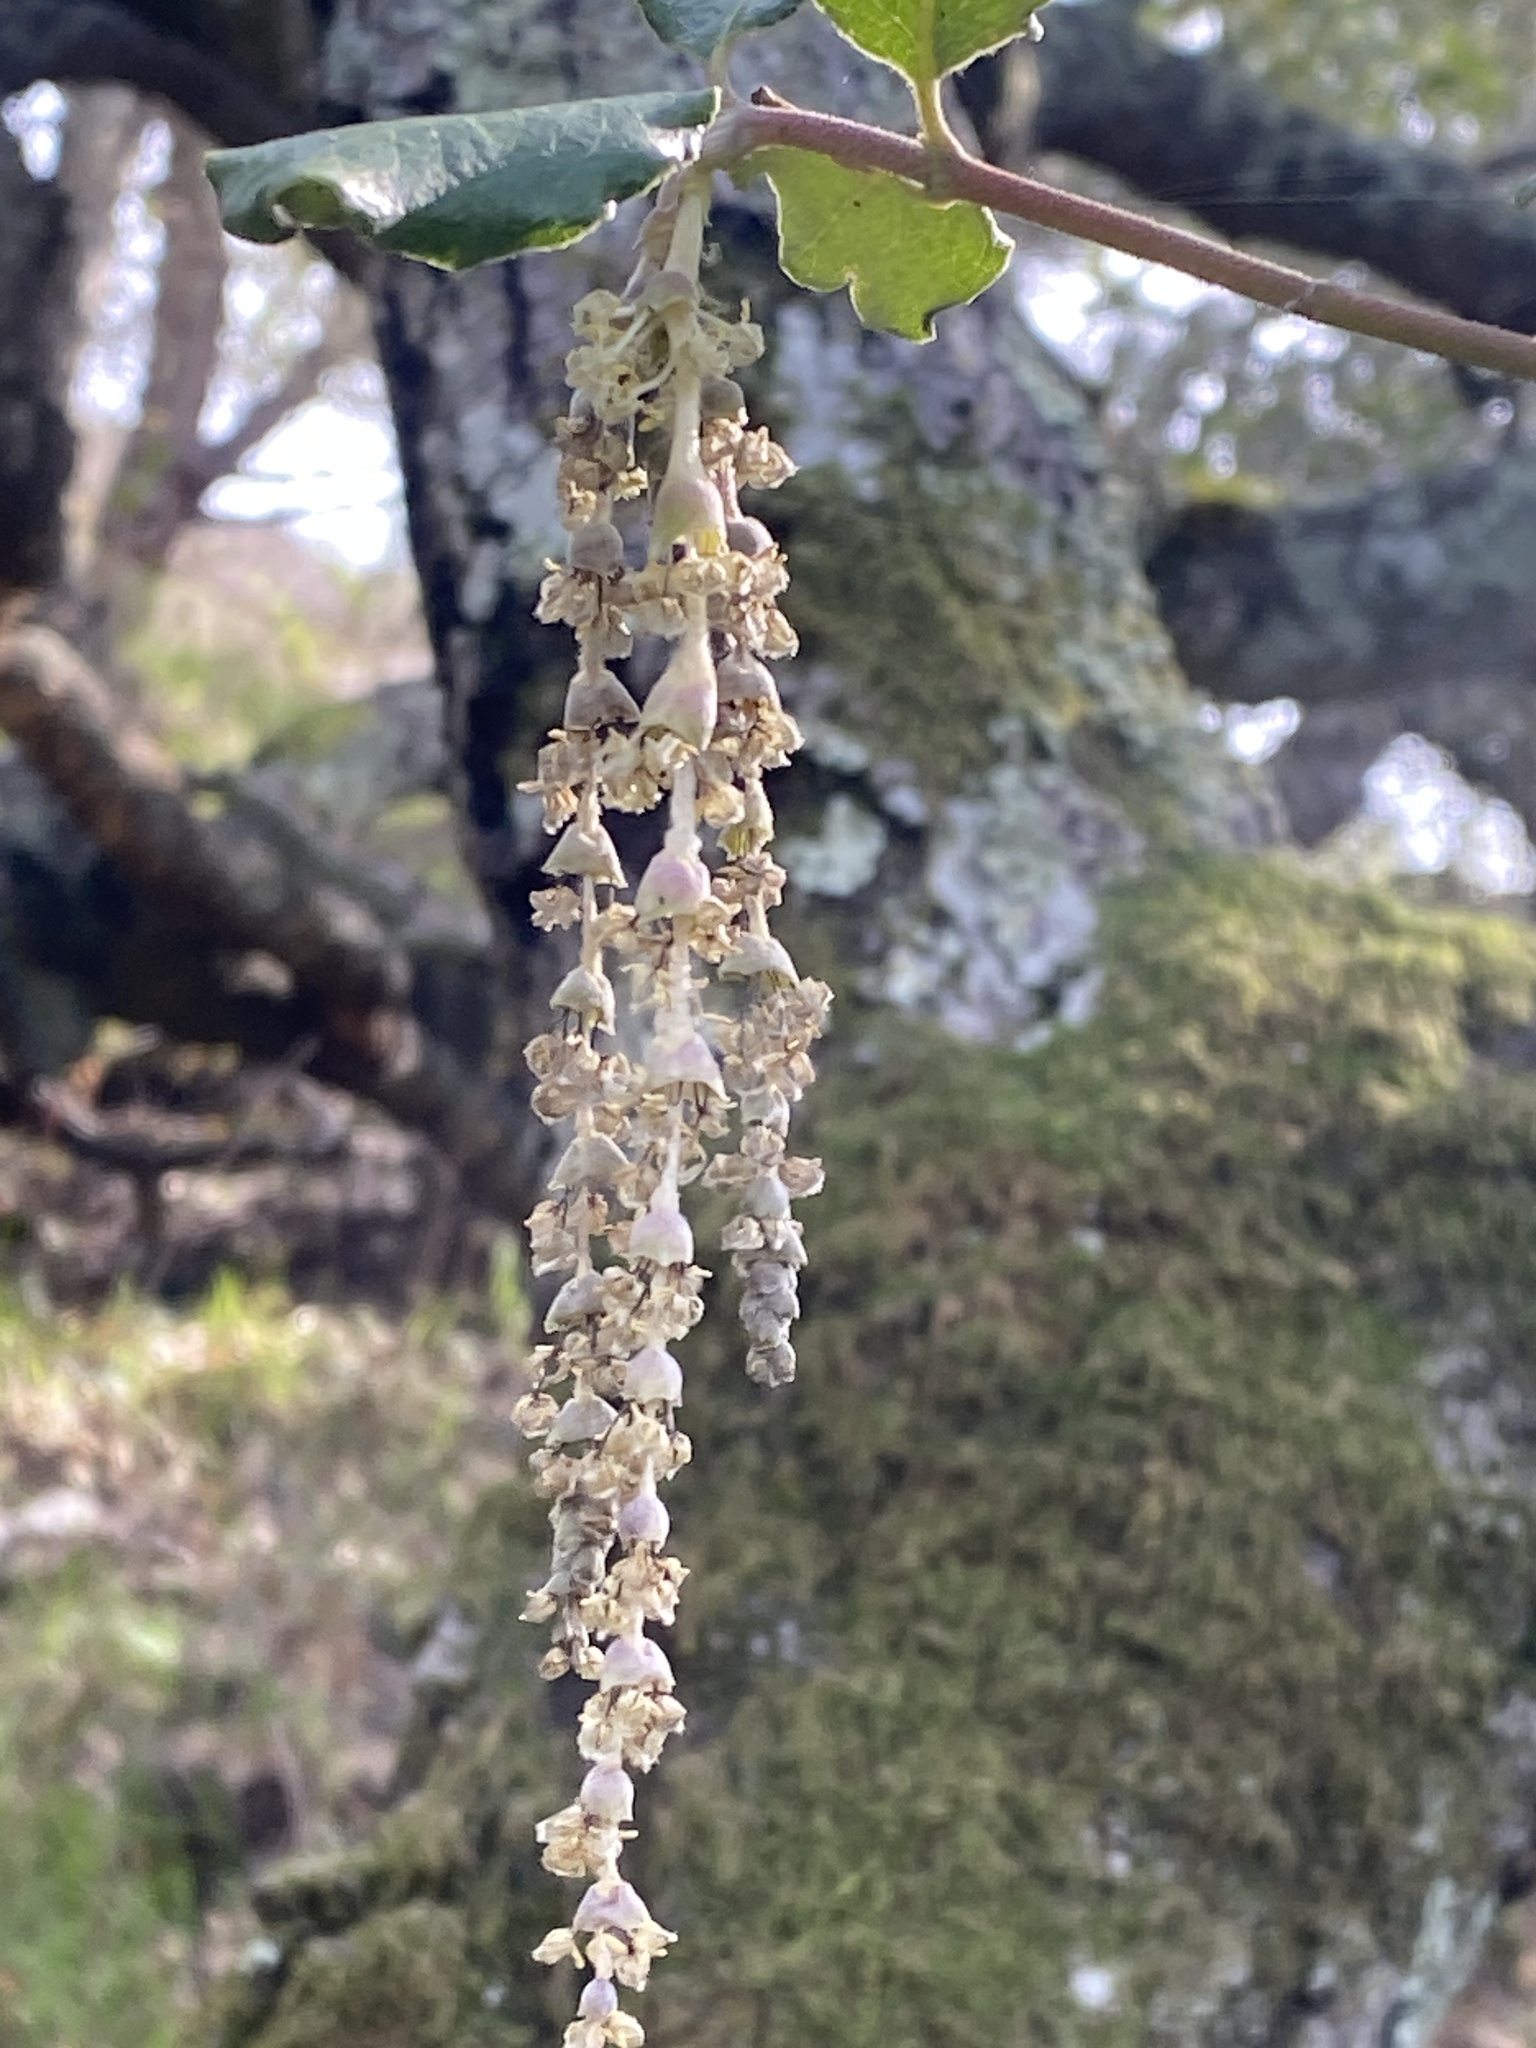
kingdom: Plantae
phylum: Tracheophyta
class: Magnoliopsida
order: Garryales
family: Garryaceae
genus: Garrya
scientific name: Garrya elliptica
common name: Silk-tassel
